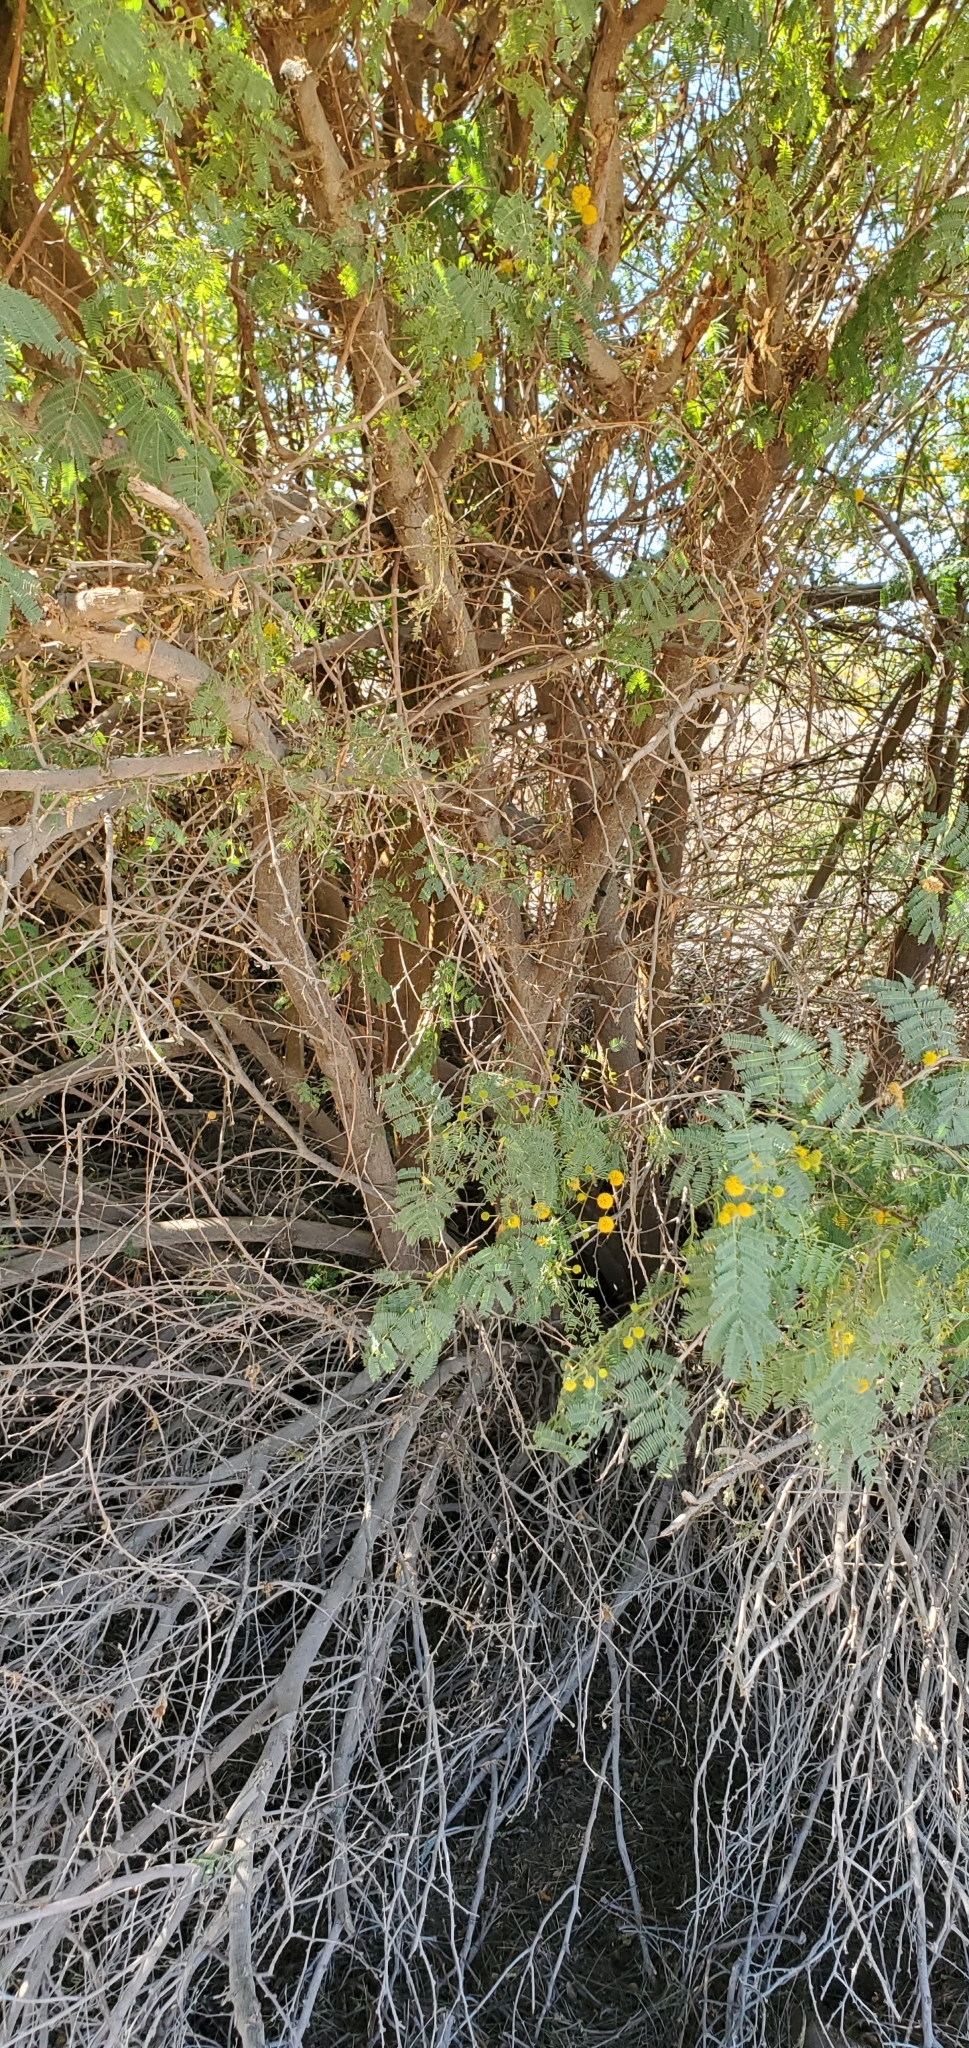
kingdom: Plantae
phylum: Tracheophyta
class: Magnoliopsida
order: Fabales
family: Fabaceae
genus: Vachellia
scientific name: Vachellia farnesiana
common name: Sweet acacia
